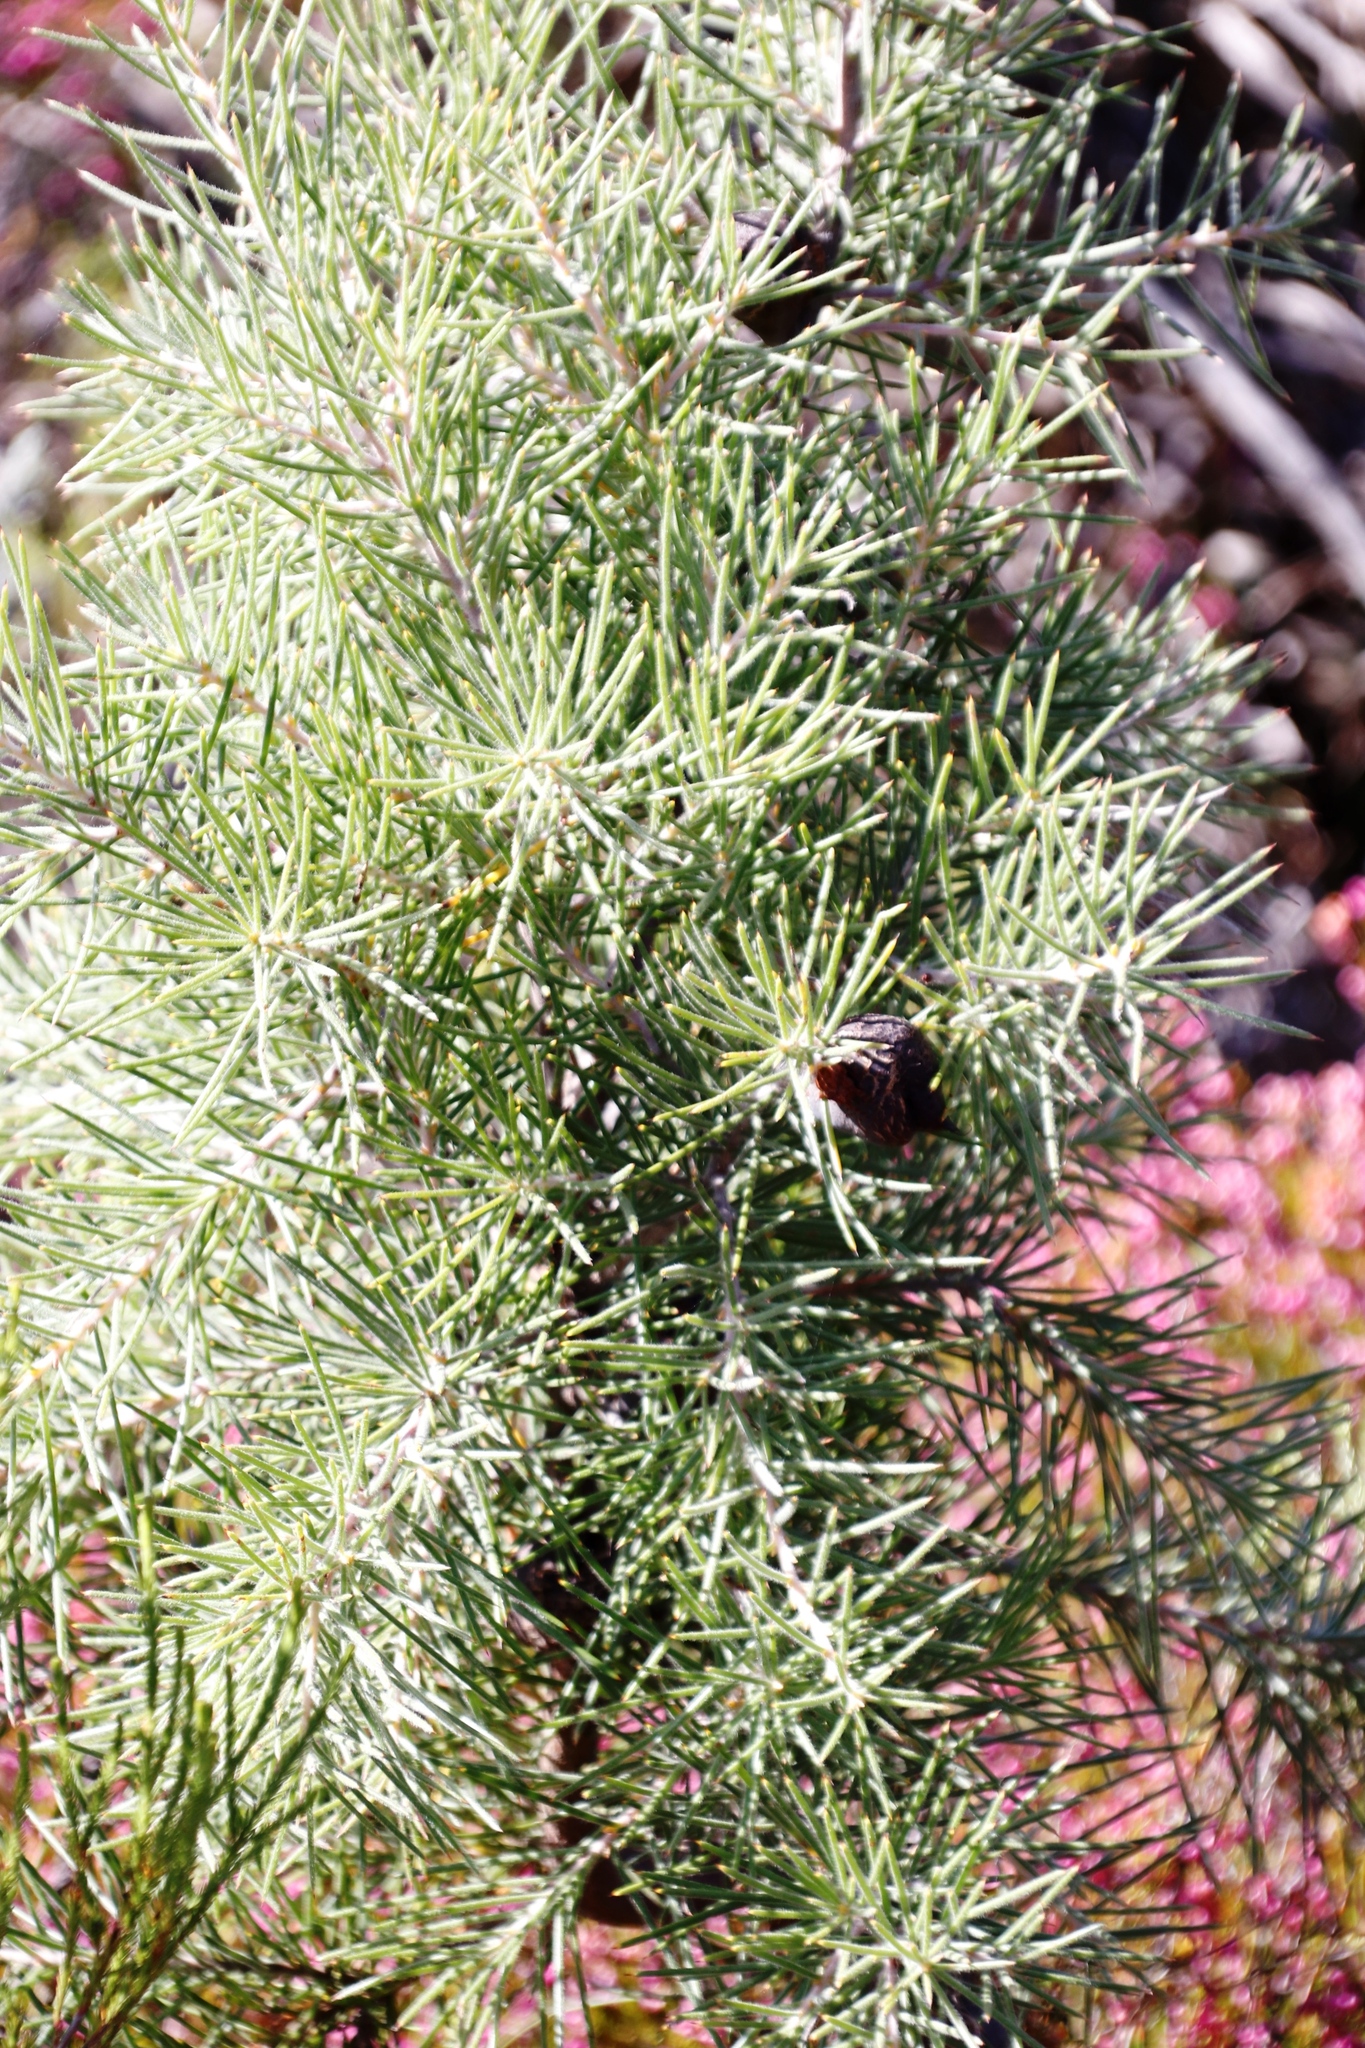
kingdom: Plantae
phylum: Tracheophyta
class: Magnoliopsida
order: Proteales
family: Proteaceae
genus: Hakea
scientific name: Hakea gibbosa
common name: Rock hakea
